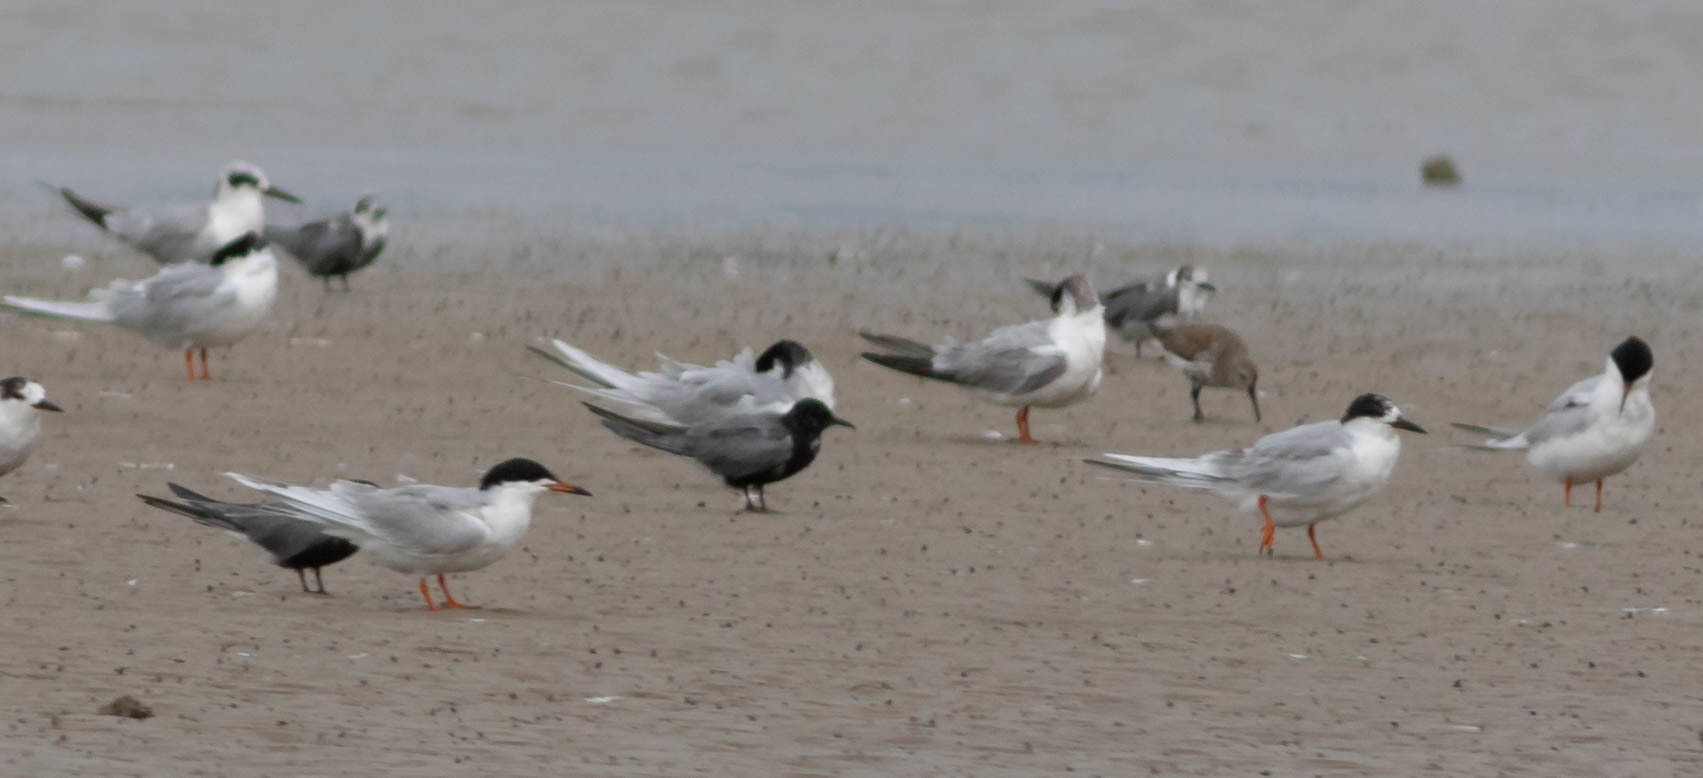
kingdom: Animalia
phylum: Chordata
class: Aves
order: Charadriiformes
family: Laridae
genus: Chlidonias
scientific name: Chlidonias niger
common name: Black tern
